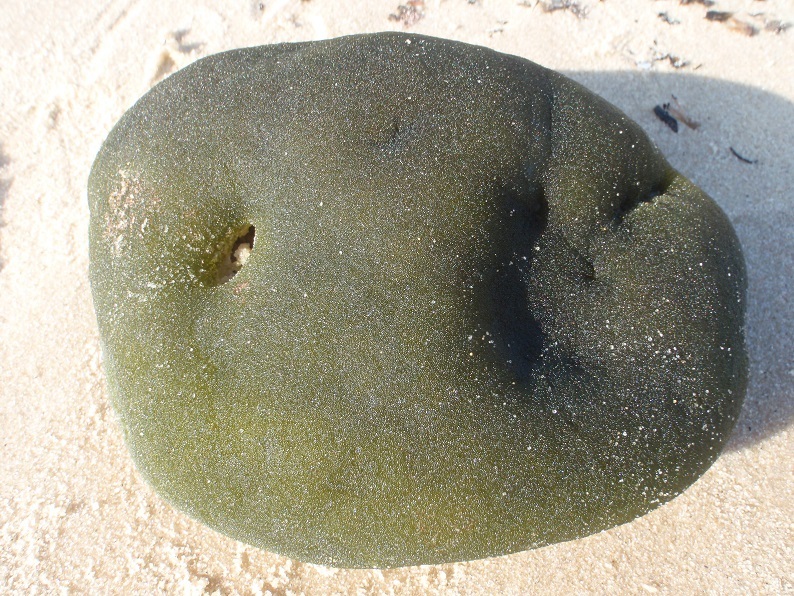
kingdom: Plantae
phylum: Chlorophyta
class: Ulvophyceae
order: Bryopsidales
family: Codiaceae
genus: Codium
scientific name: Codium bursa
